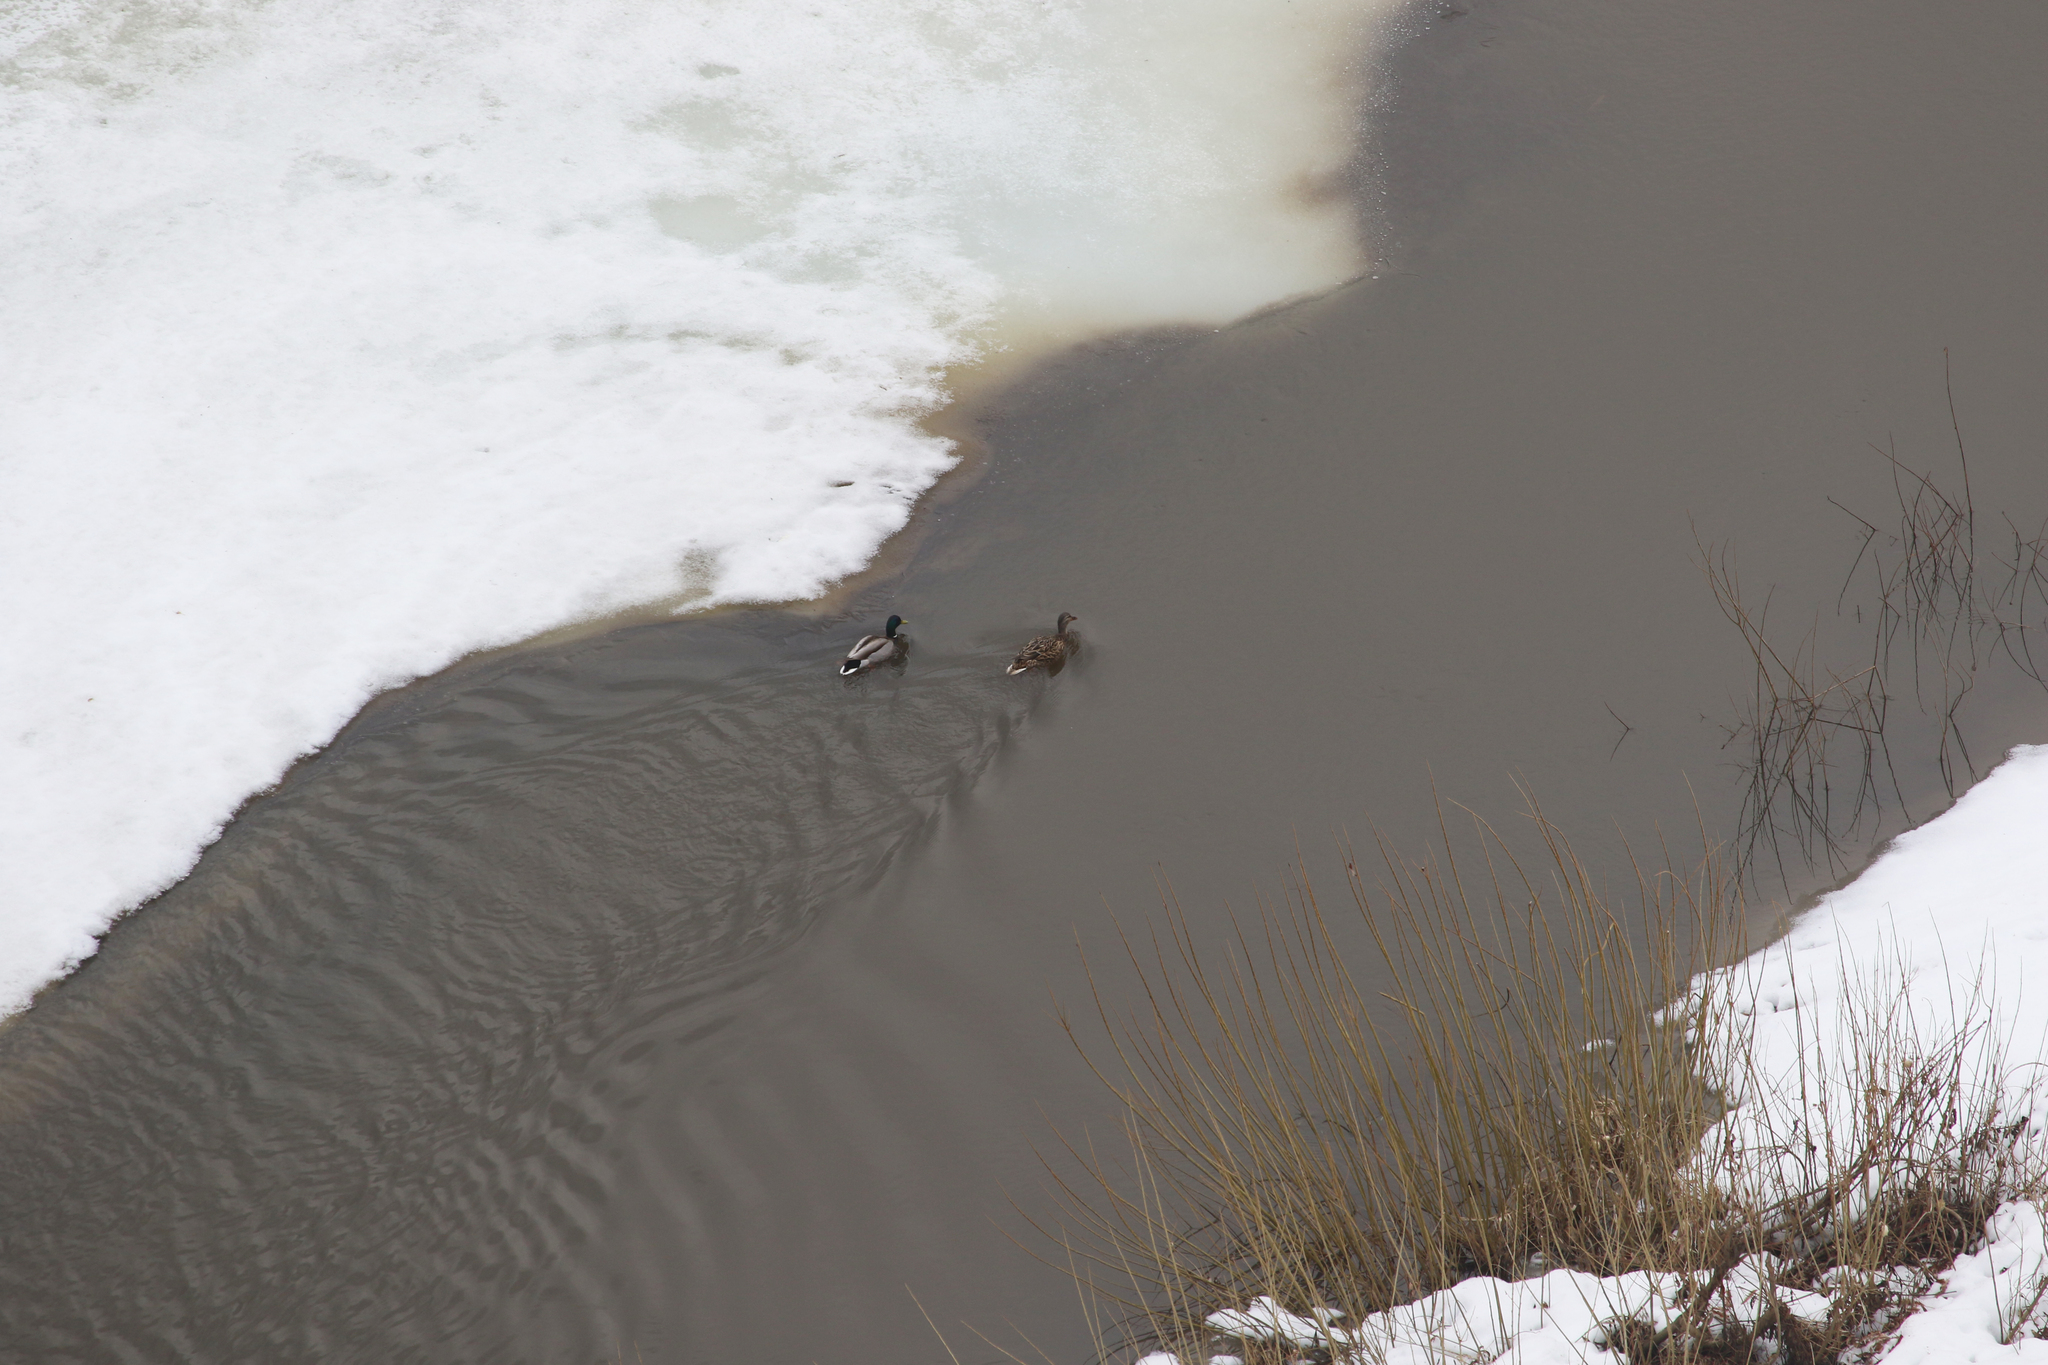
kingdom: Animalia
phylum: Chordata
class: Aves
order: Anseriformes
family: Anatidae
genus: Anas
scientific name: Anas platyrhynchos
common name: Mallard
